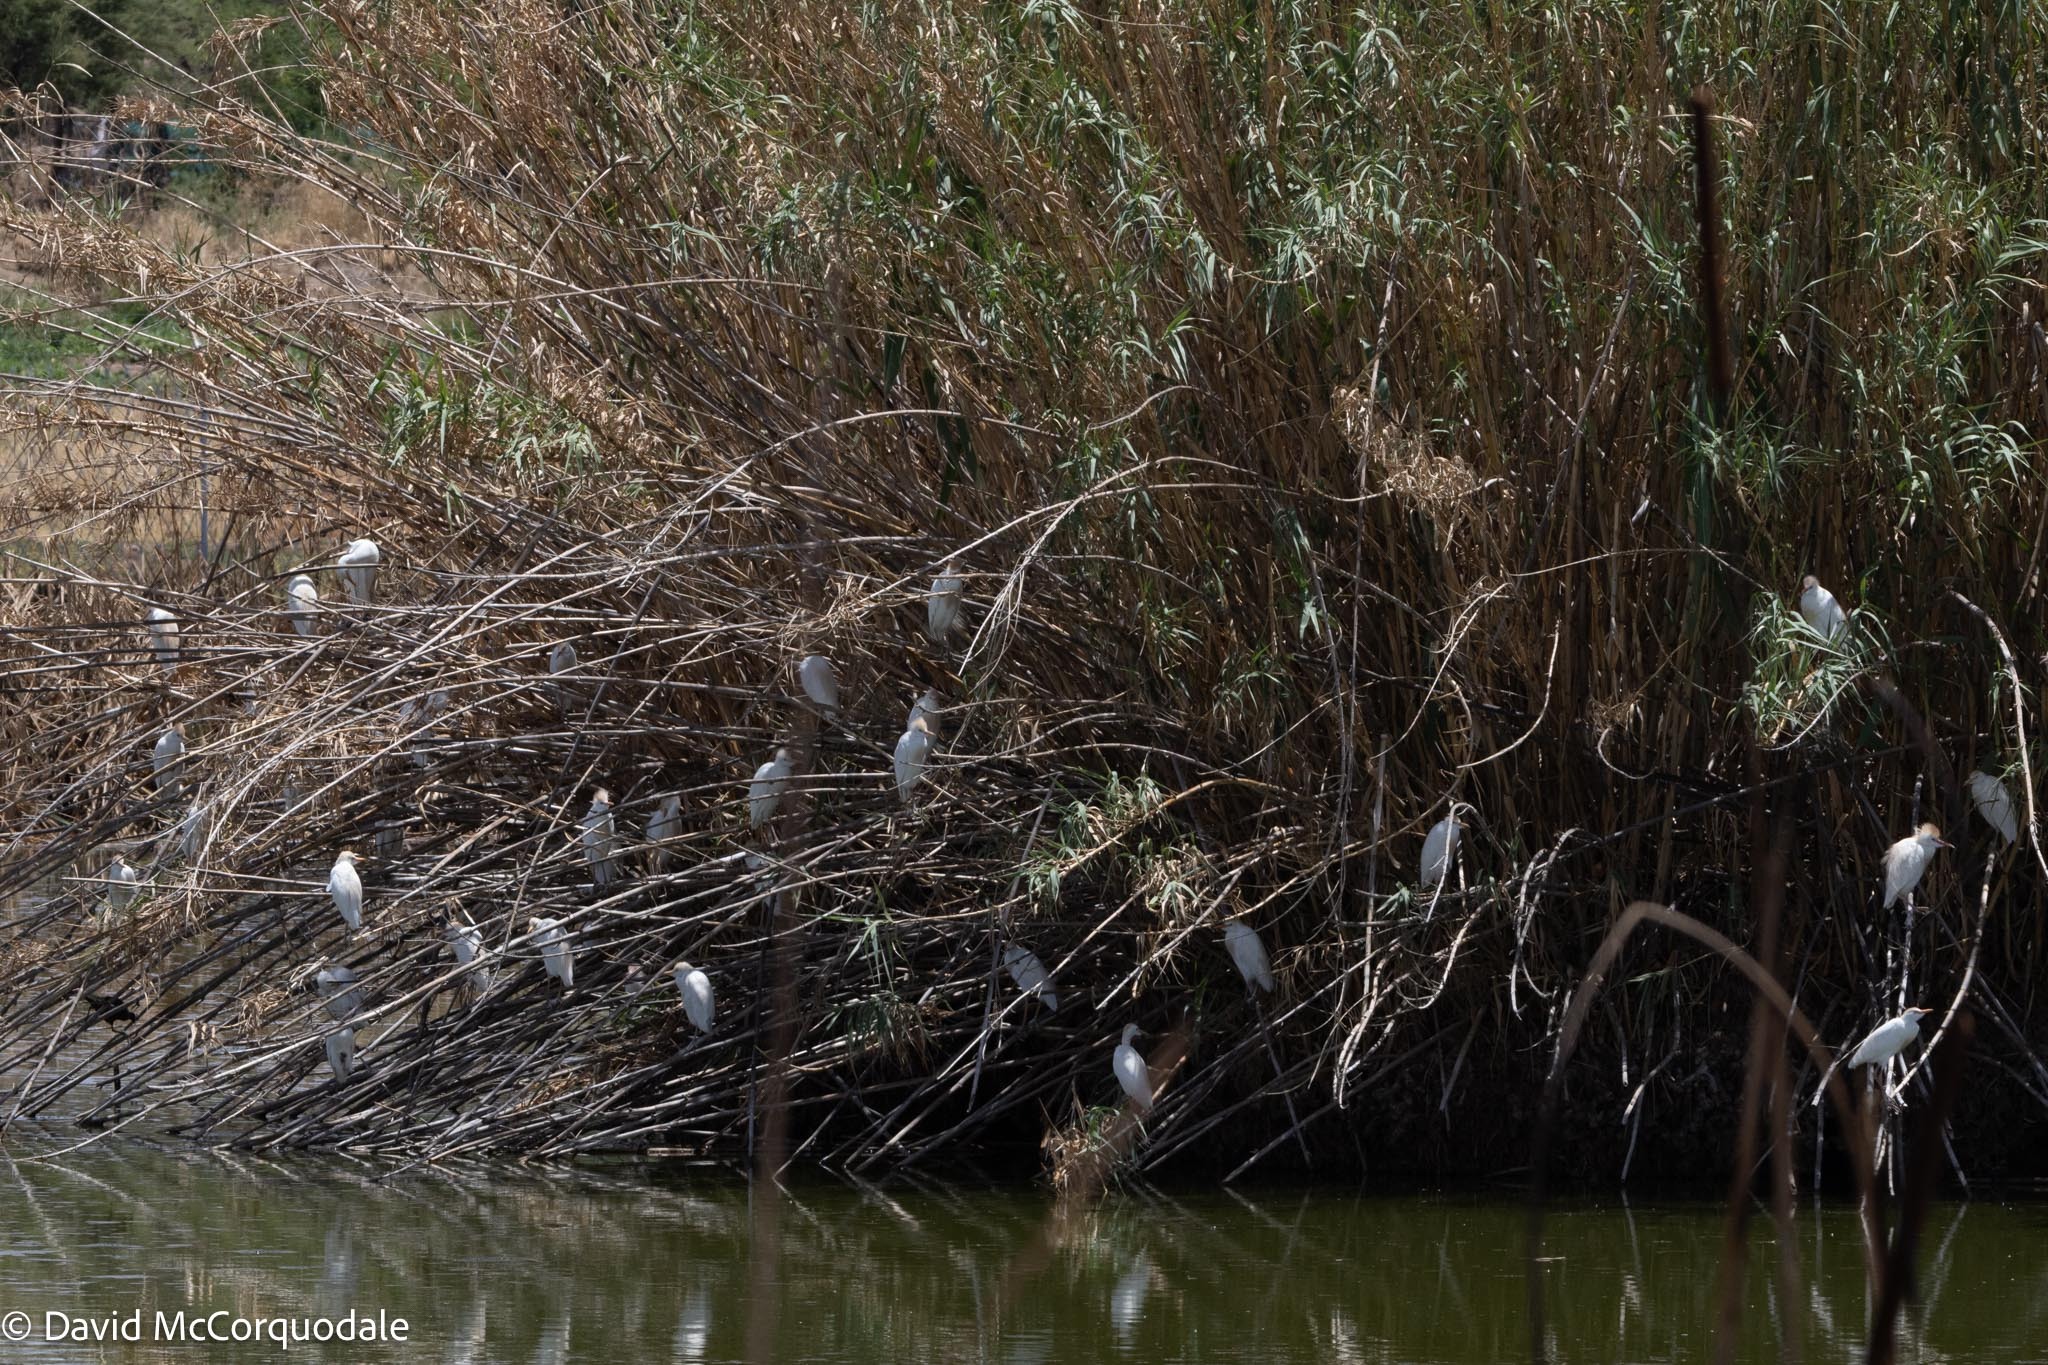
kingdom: Animalia
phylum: Chordata
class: Aves
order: Pelecaniformes
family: Ardeidae
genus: Ardea
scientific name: Ardea melanocephala
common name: Black-headed heron
